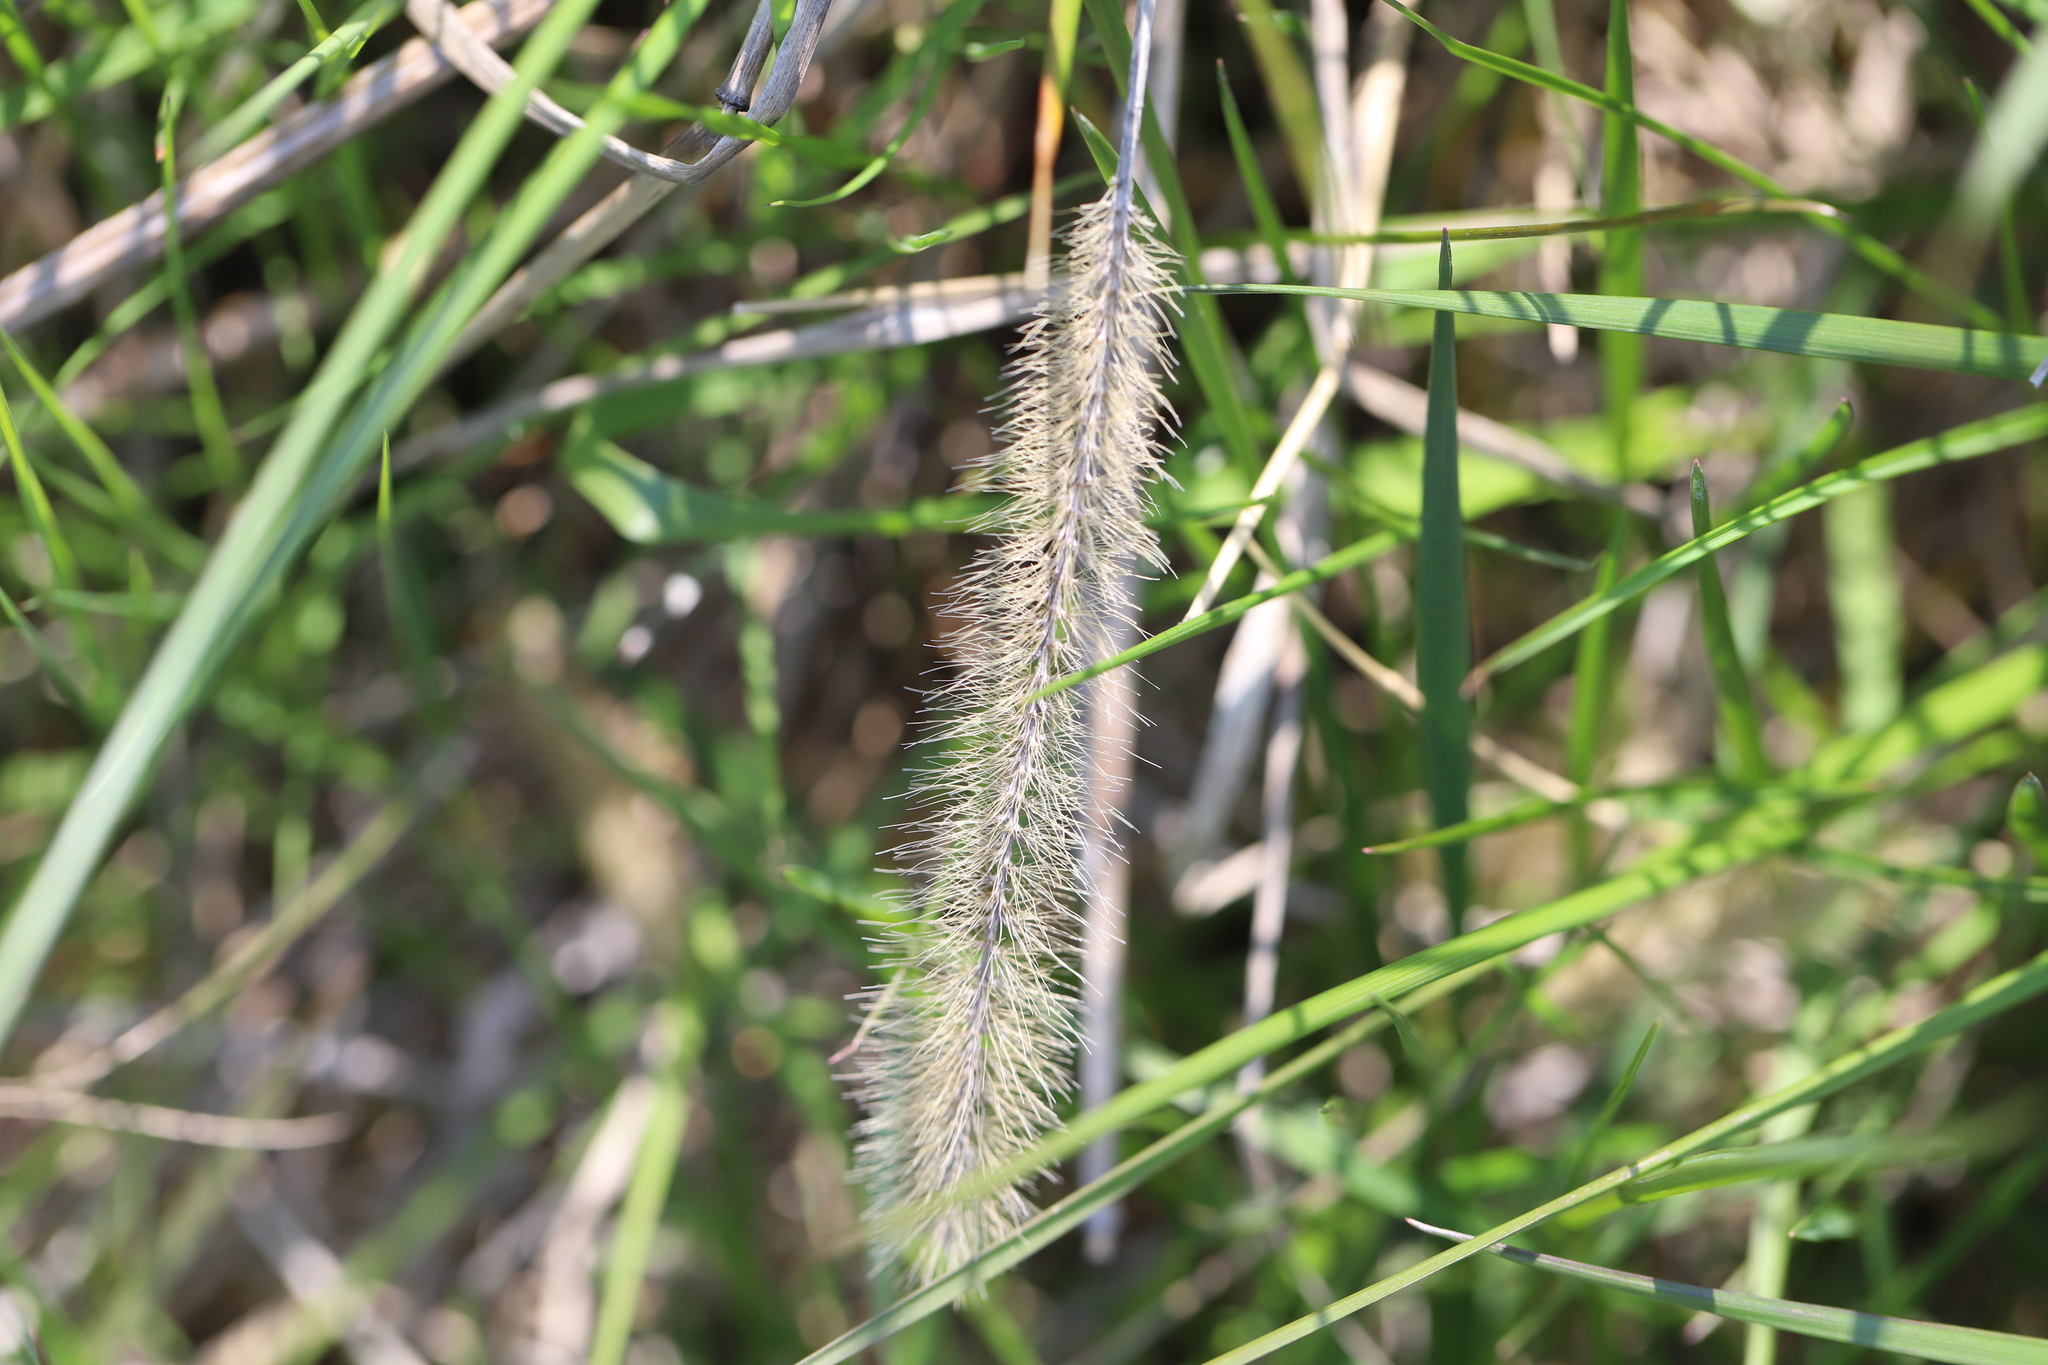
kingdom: Plantae
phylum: Tracheophyta
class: Liliopsida
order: Poales
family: Poaceae
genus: Setaria
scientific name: Setaria faberi
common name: Nodding bristle-grass
